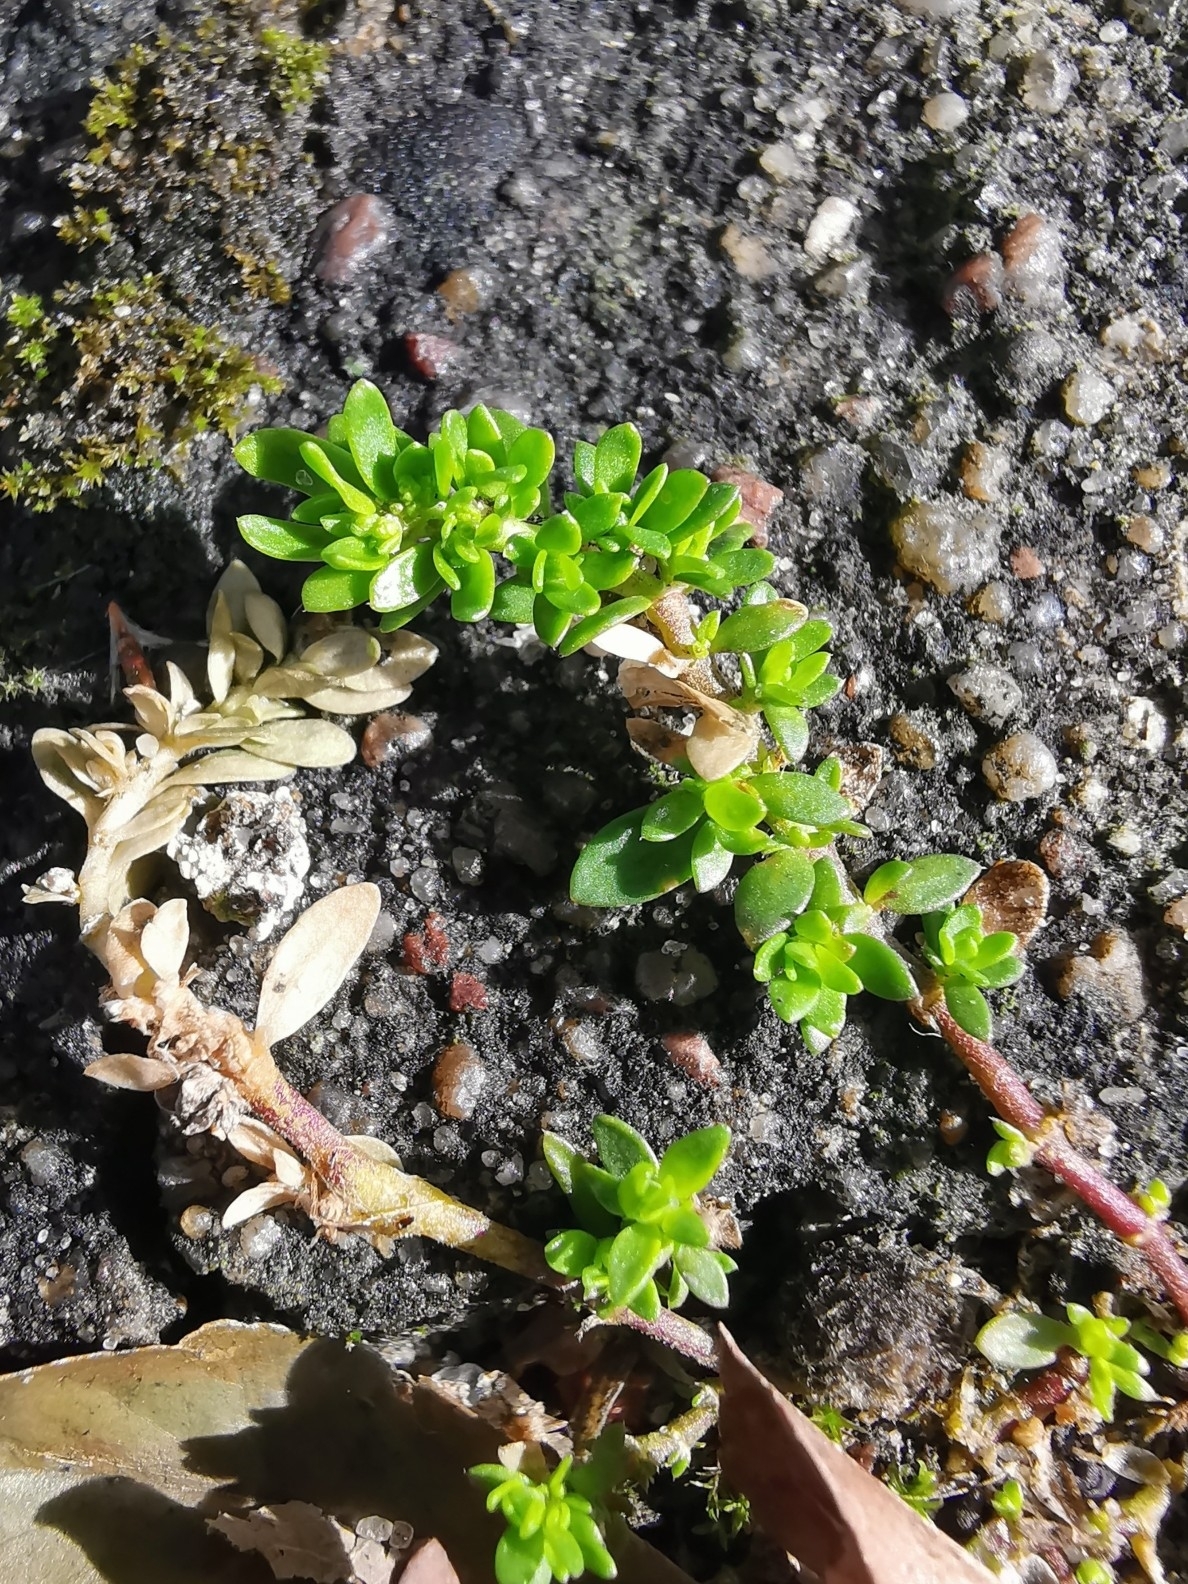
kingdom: Plantae
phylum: Tracheophyta
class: Magnoliopsida
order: Caryophyllales
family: Caryophyllaceae
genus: Herniaria
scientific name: Herniaria glabra
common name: Smooth rupturewort
